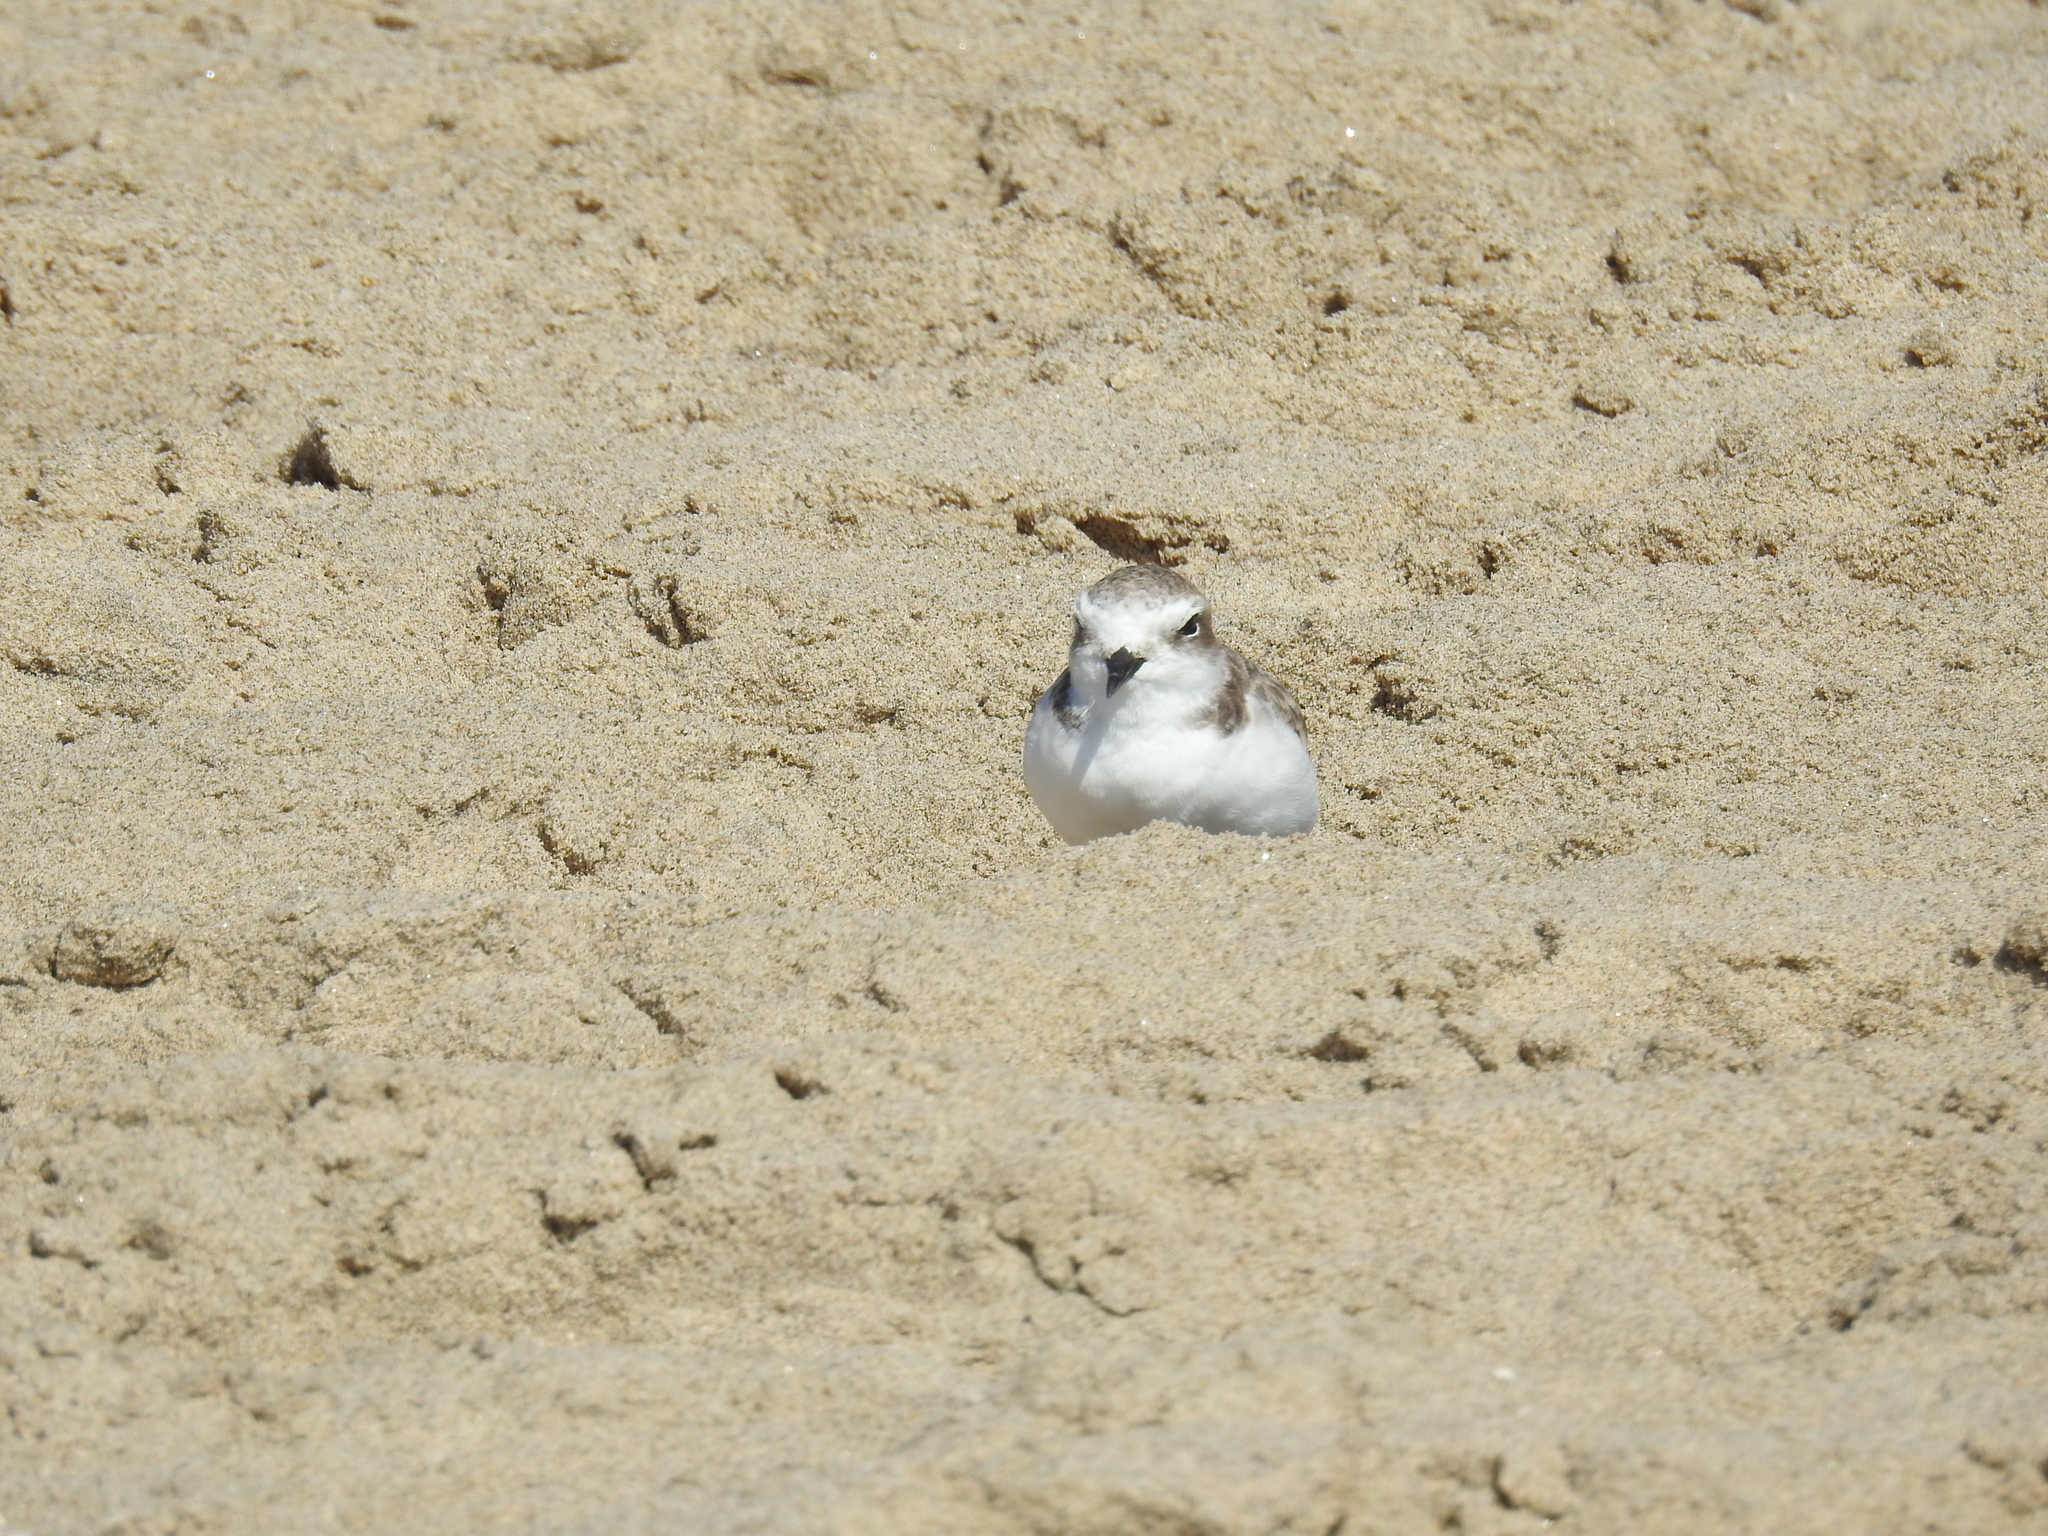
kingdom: Animalia
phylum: Chordata
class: Aves
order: Charadriiformes
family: Charadriidae
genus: Anarhynchus
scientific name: Anarhynchus
